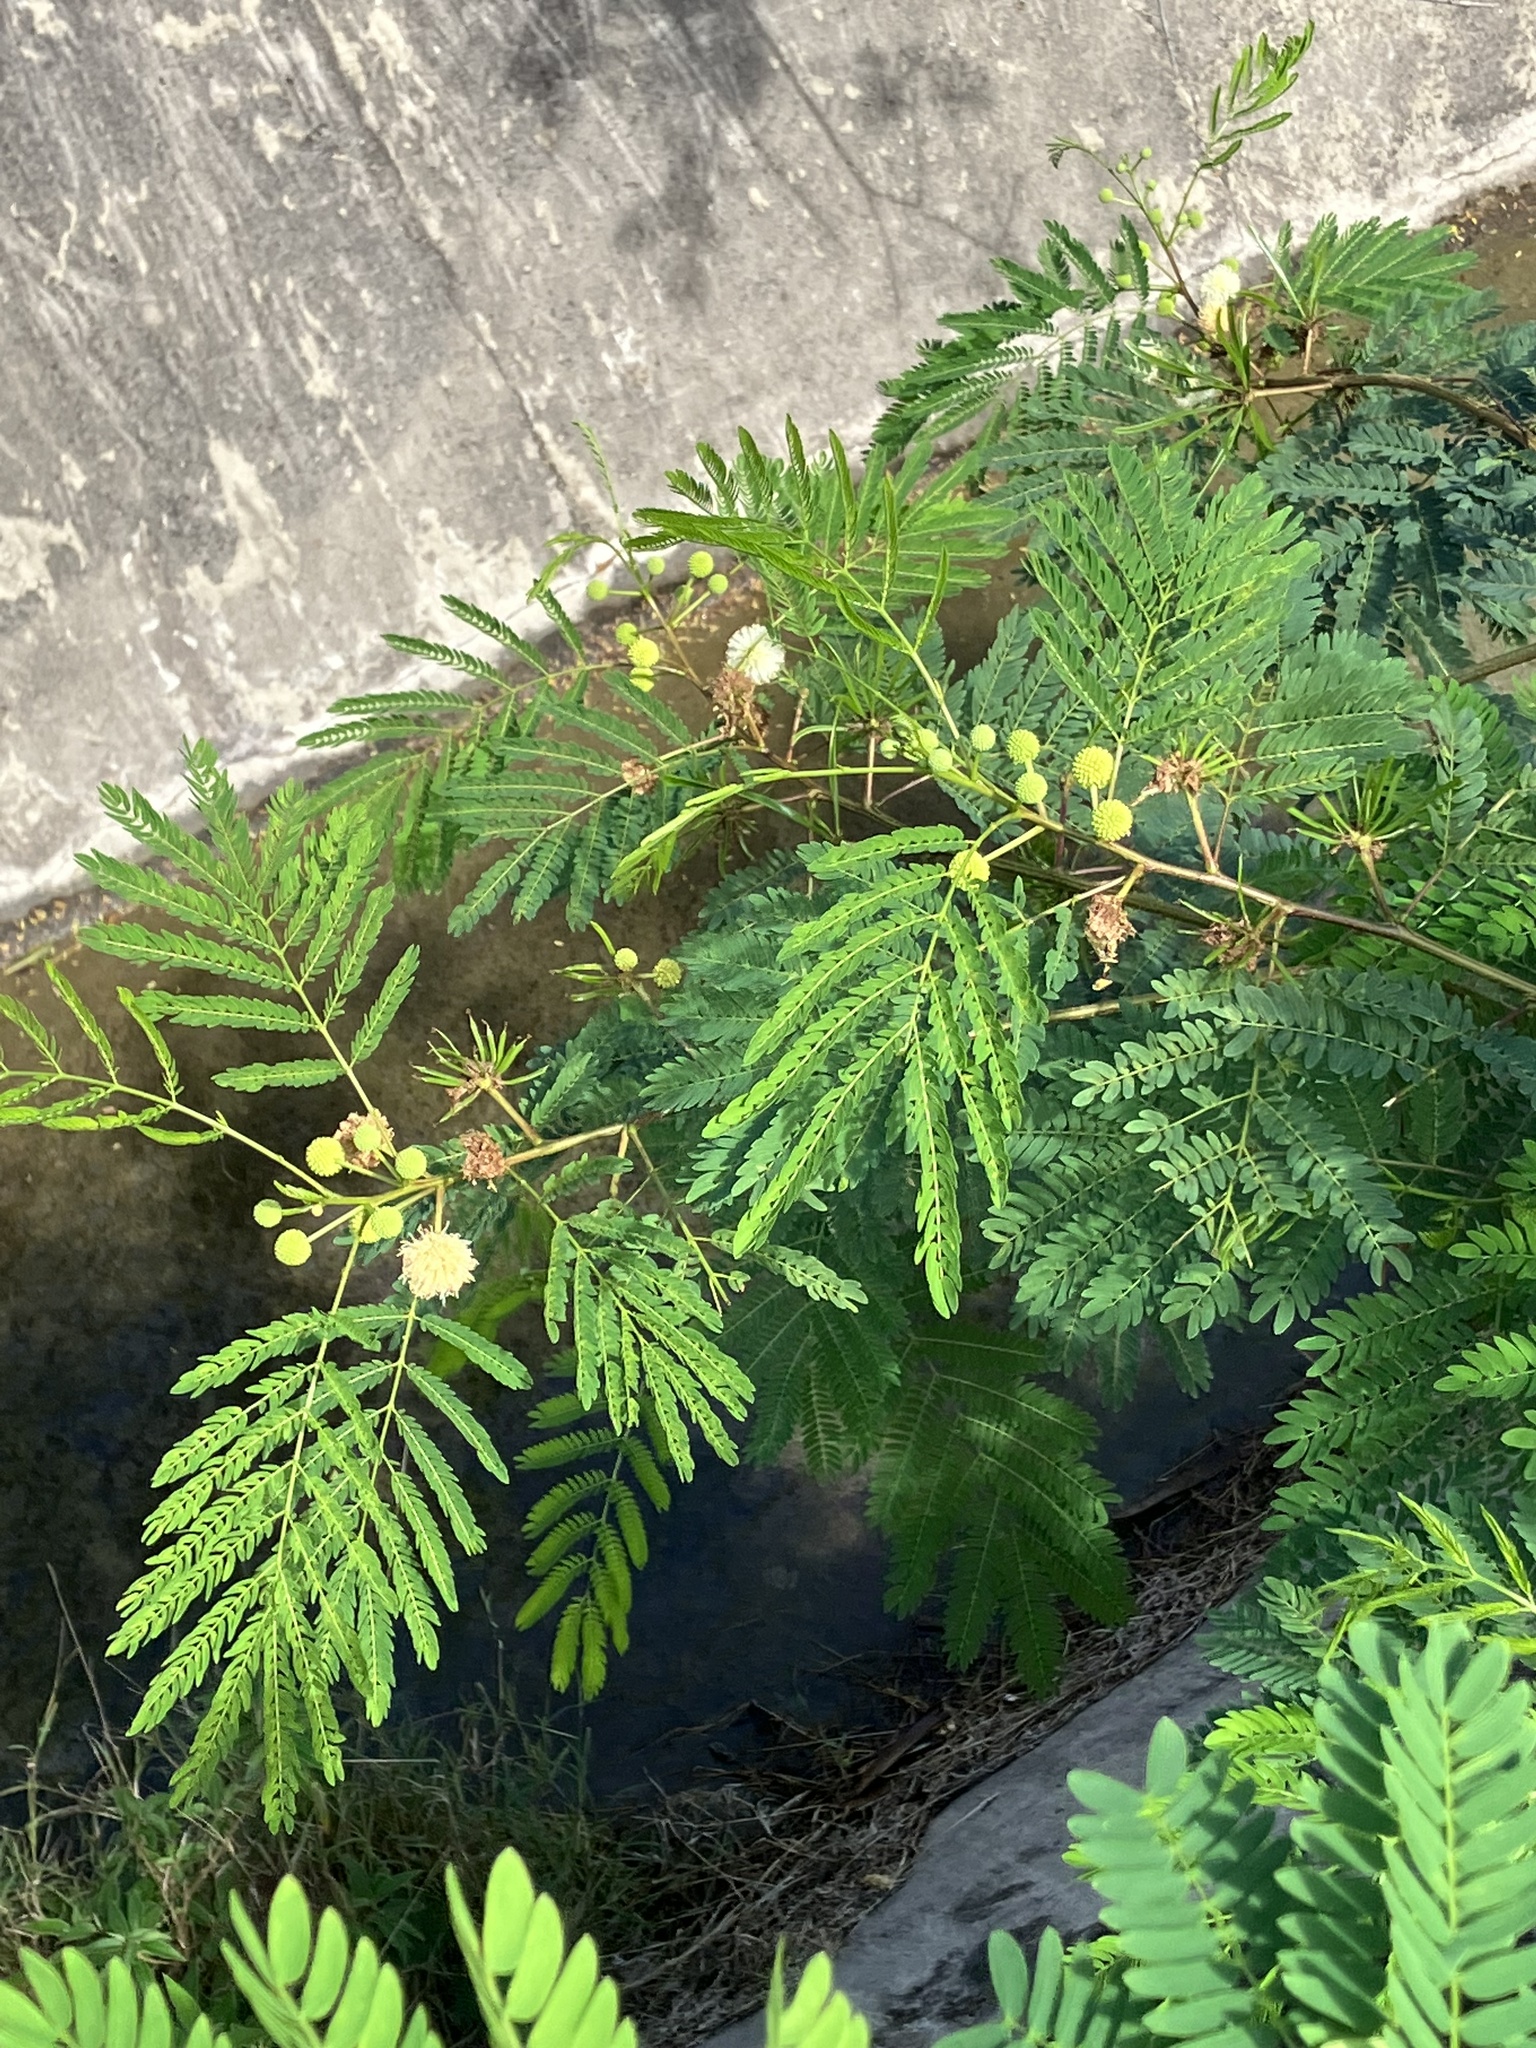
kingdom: Plantae
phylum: Tracheophyta
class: Magnoliopsida
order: Fabales
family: Fabaceae
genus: Leucaena
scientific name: Leucaena leucocephala
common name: White leadtree
